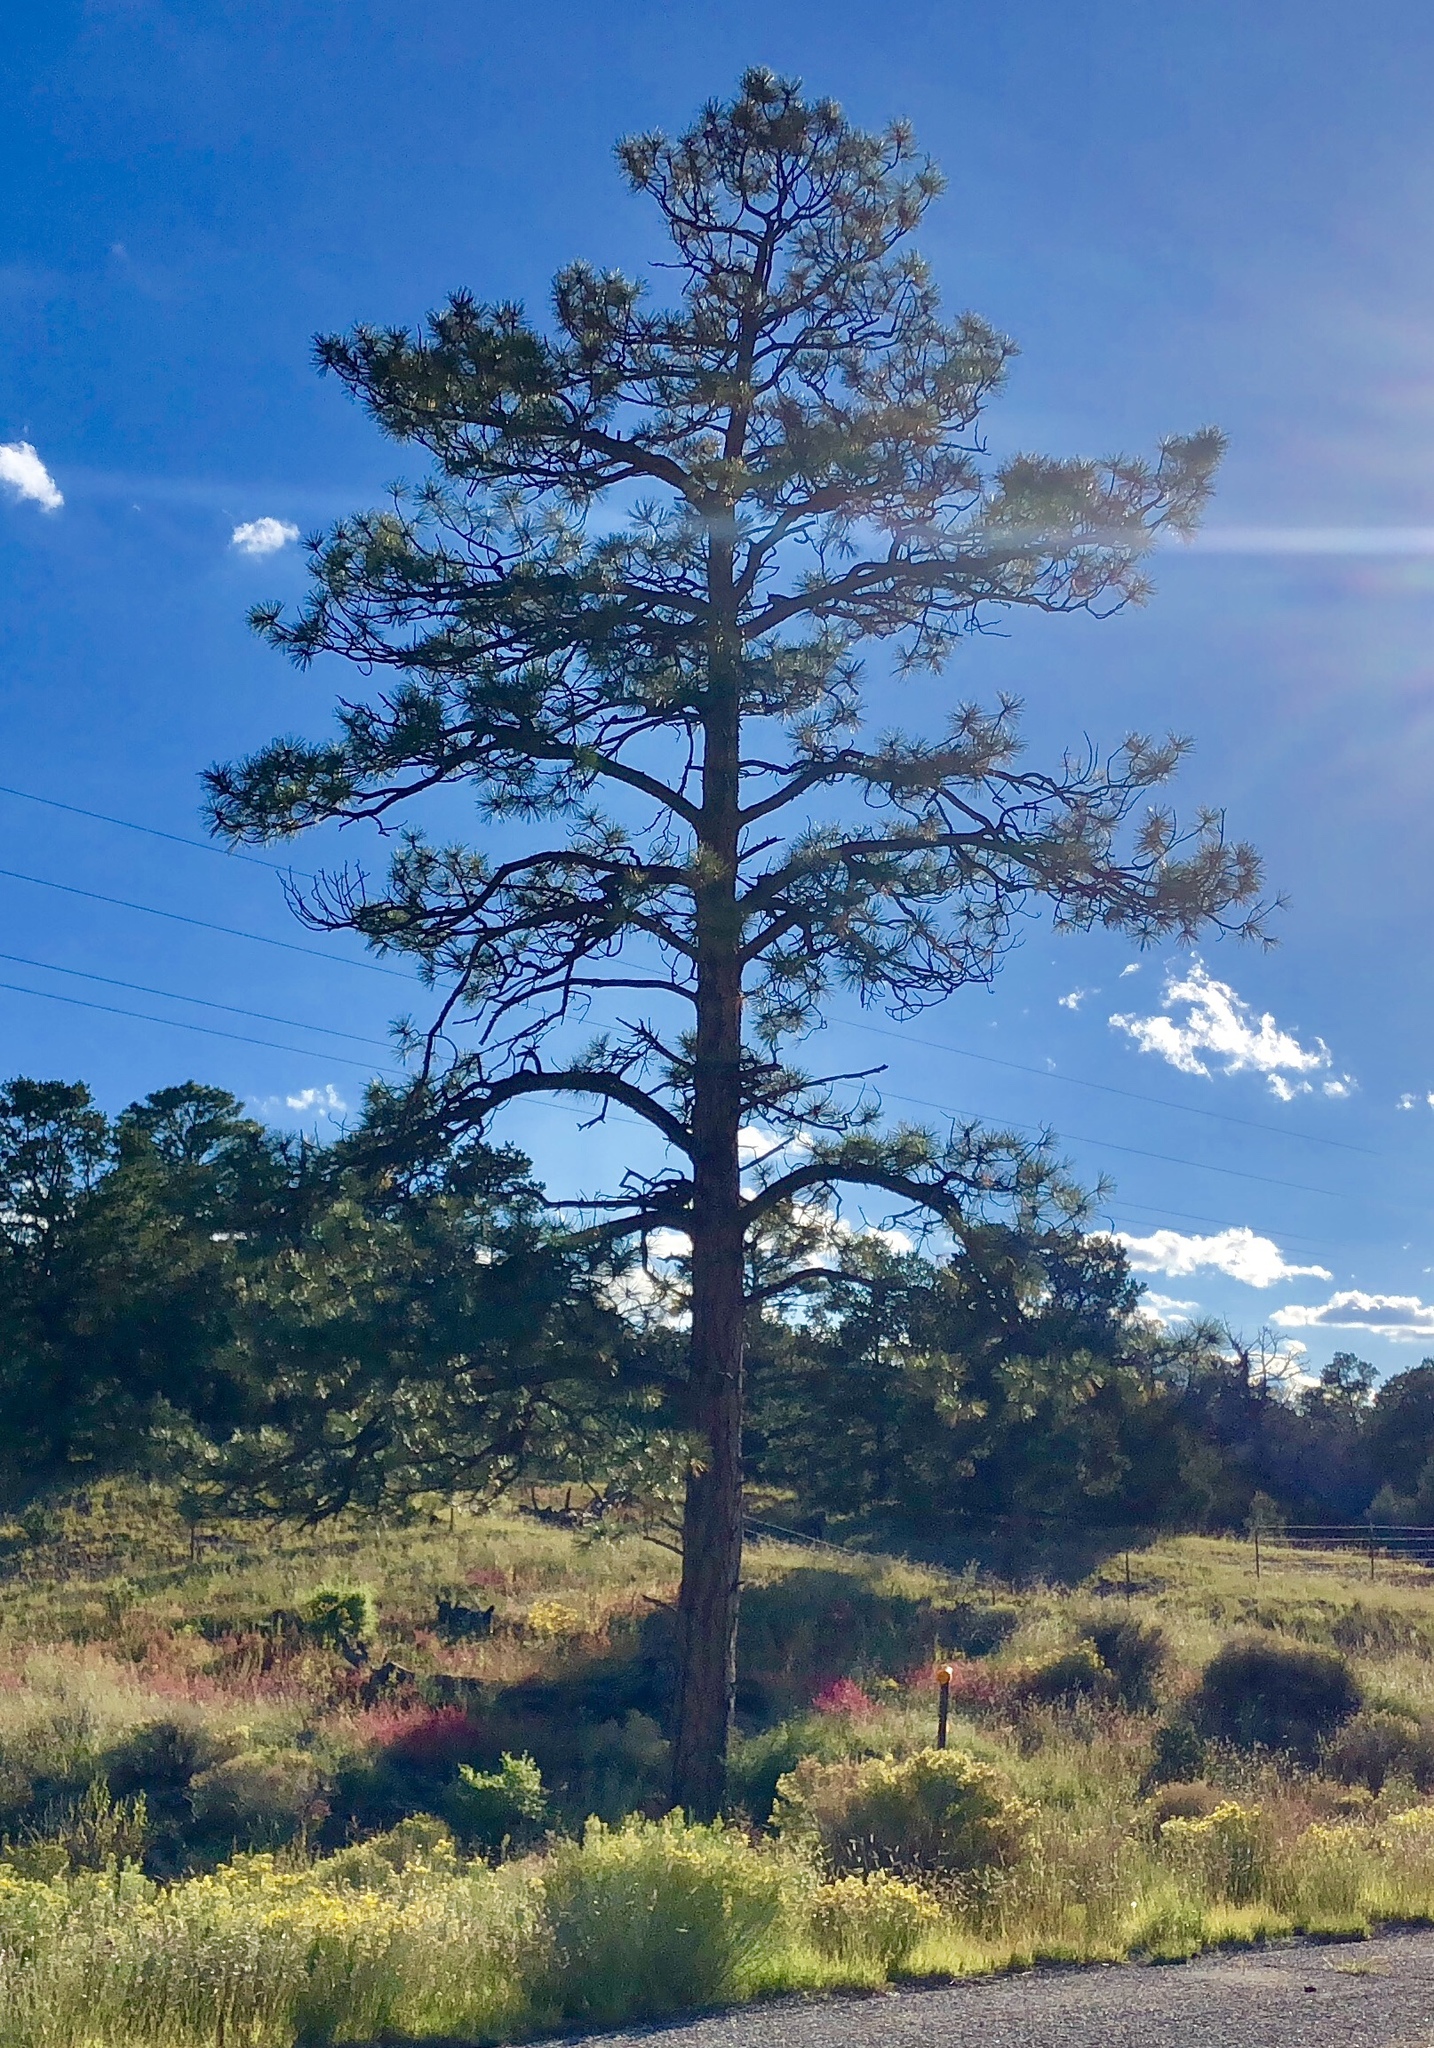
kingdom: Plantae
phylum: Tracheophyta
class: Pinopsida
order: Pinales
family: Pinaceae
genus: Pinus
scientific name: Pinus ponderosa
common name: Western yellow-pine
